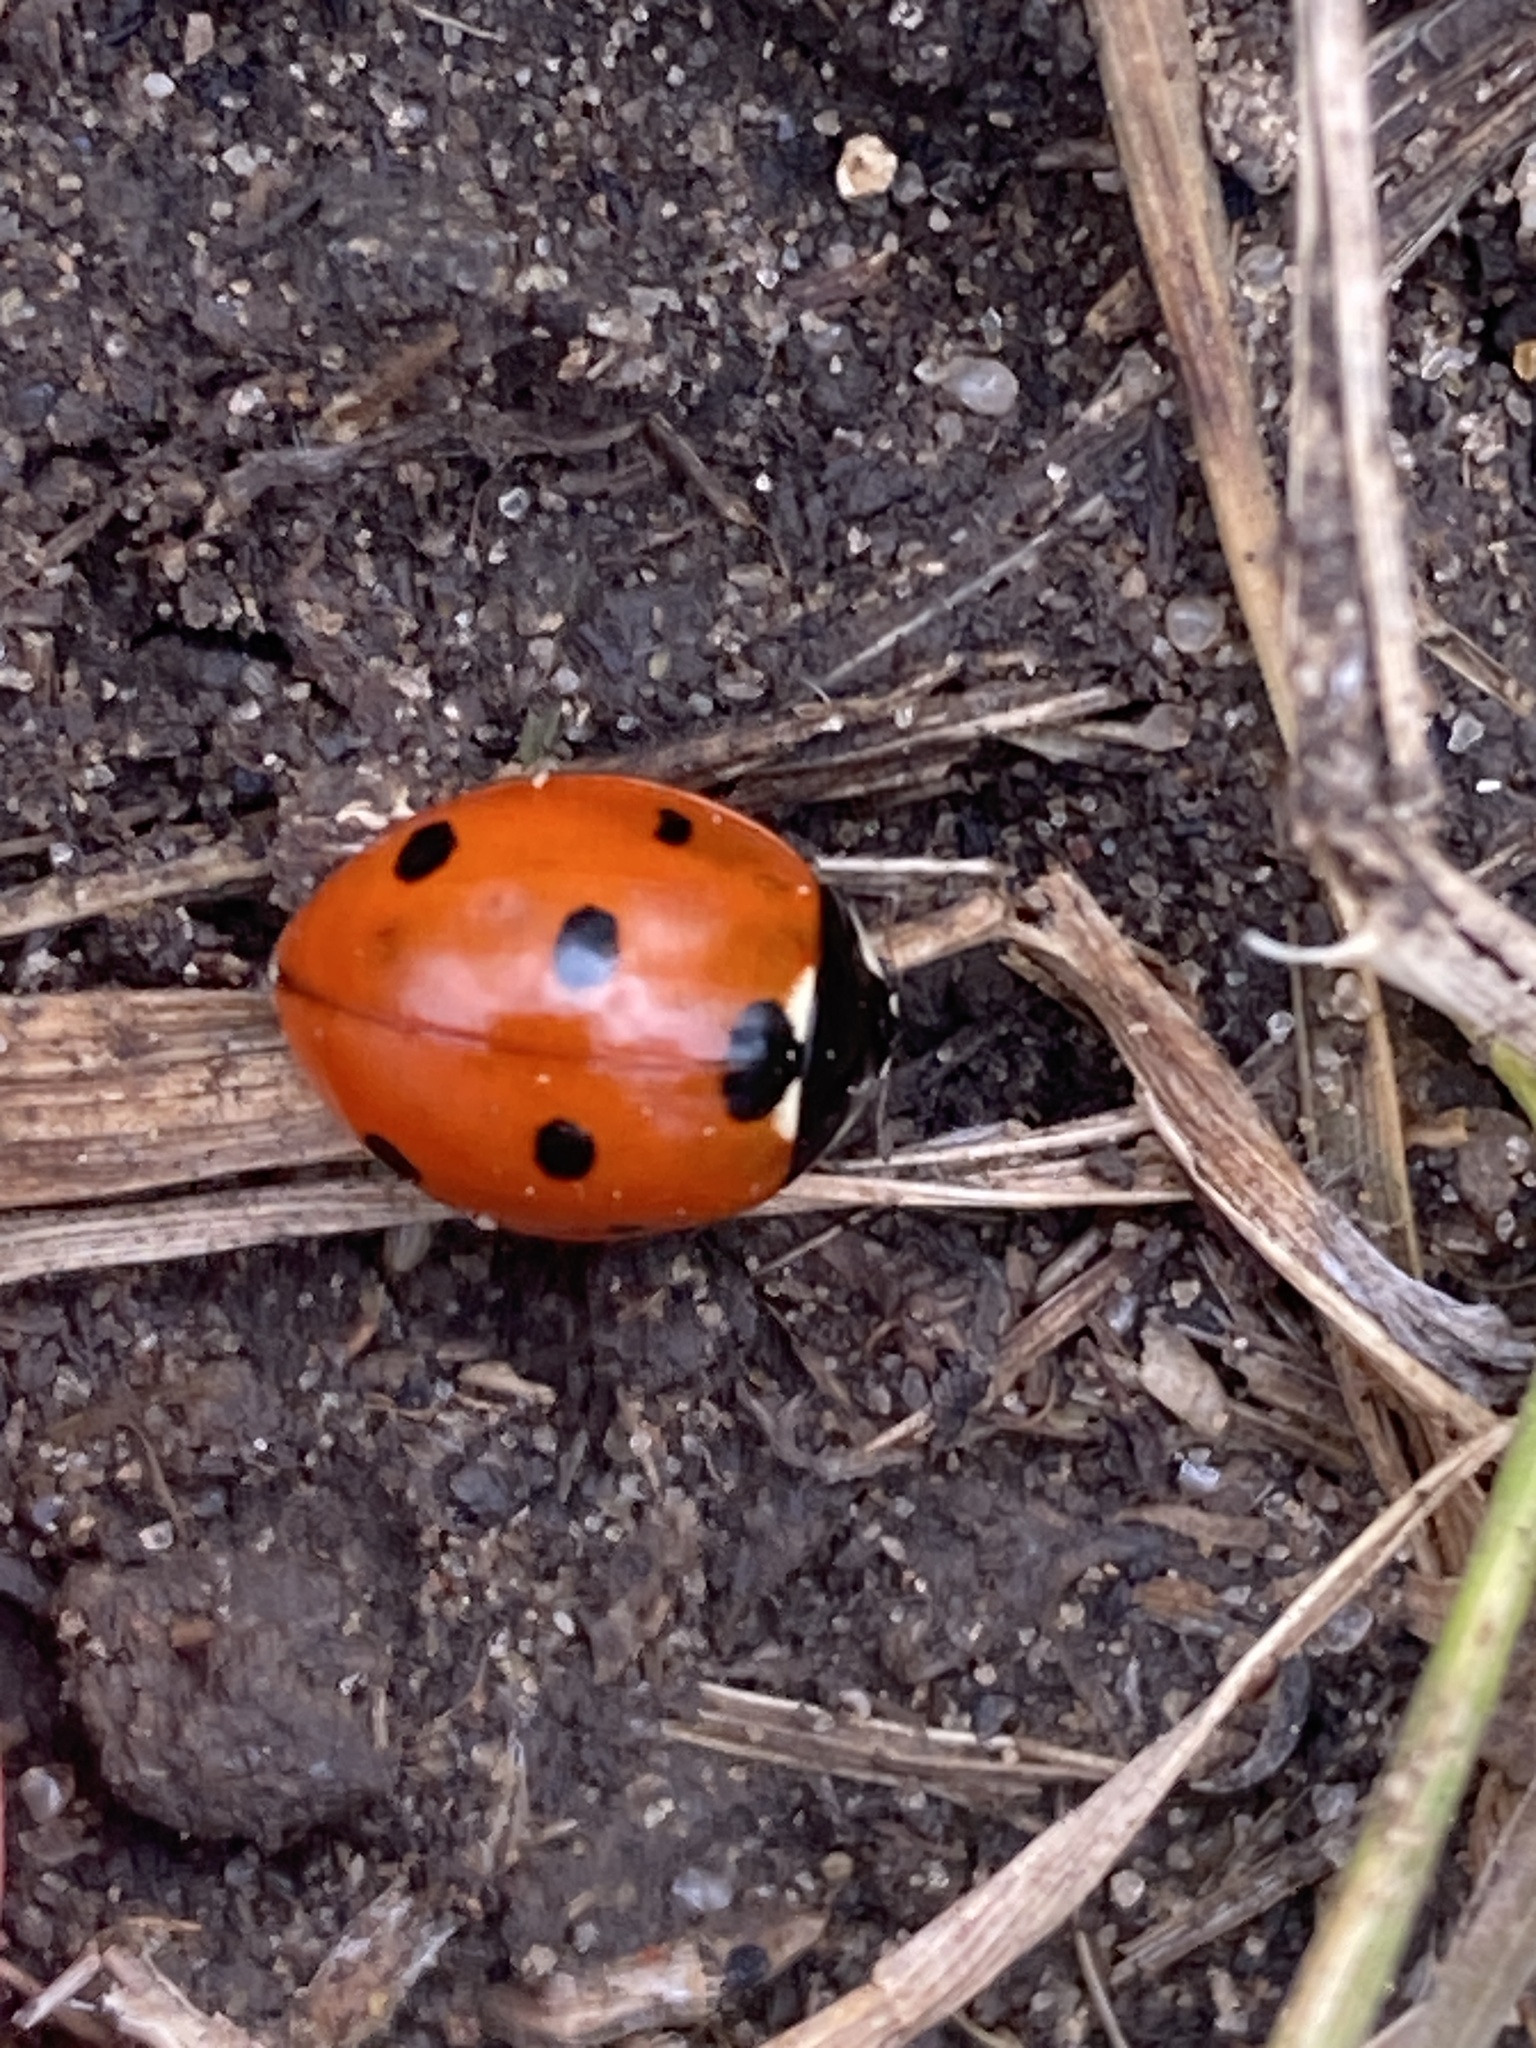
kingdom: Animalia
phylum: Arthropoda
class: Insecta
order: Coleoptera
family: Coccinellidae
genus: Coccinella
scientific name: Coccinella septempunctata
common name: Sevenspotted lady beetle
